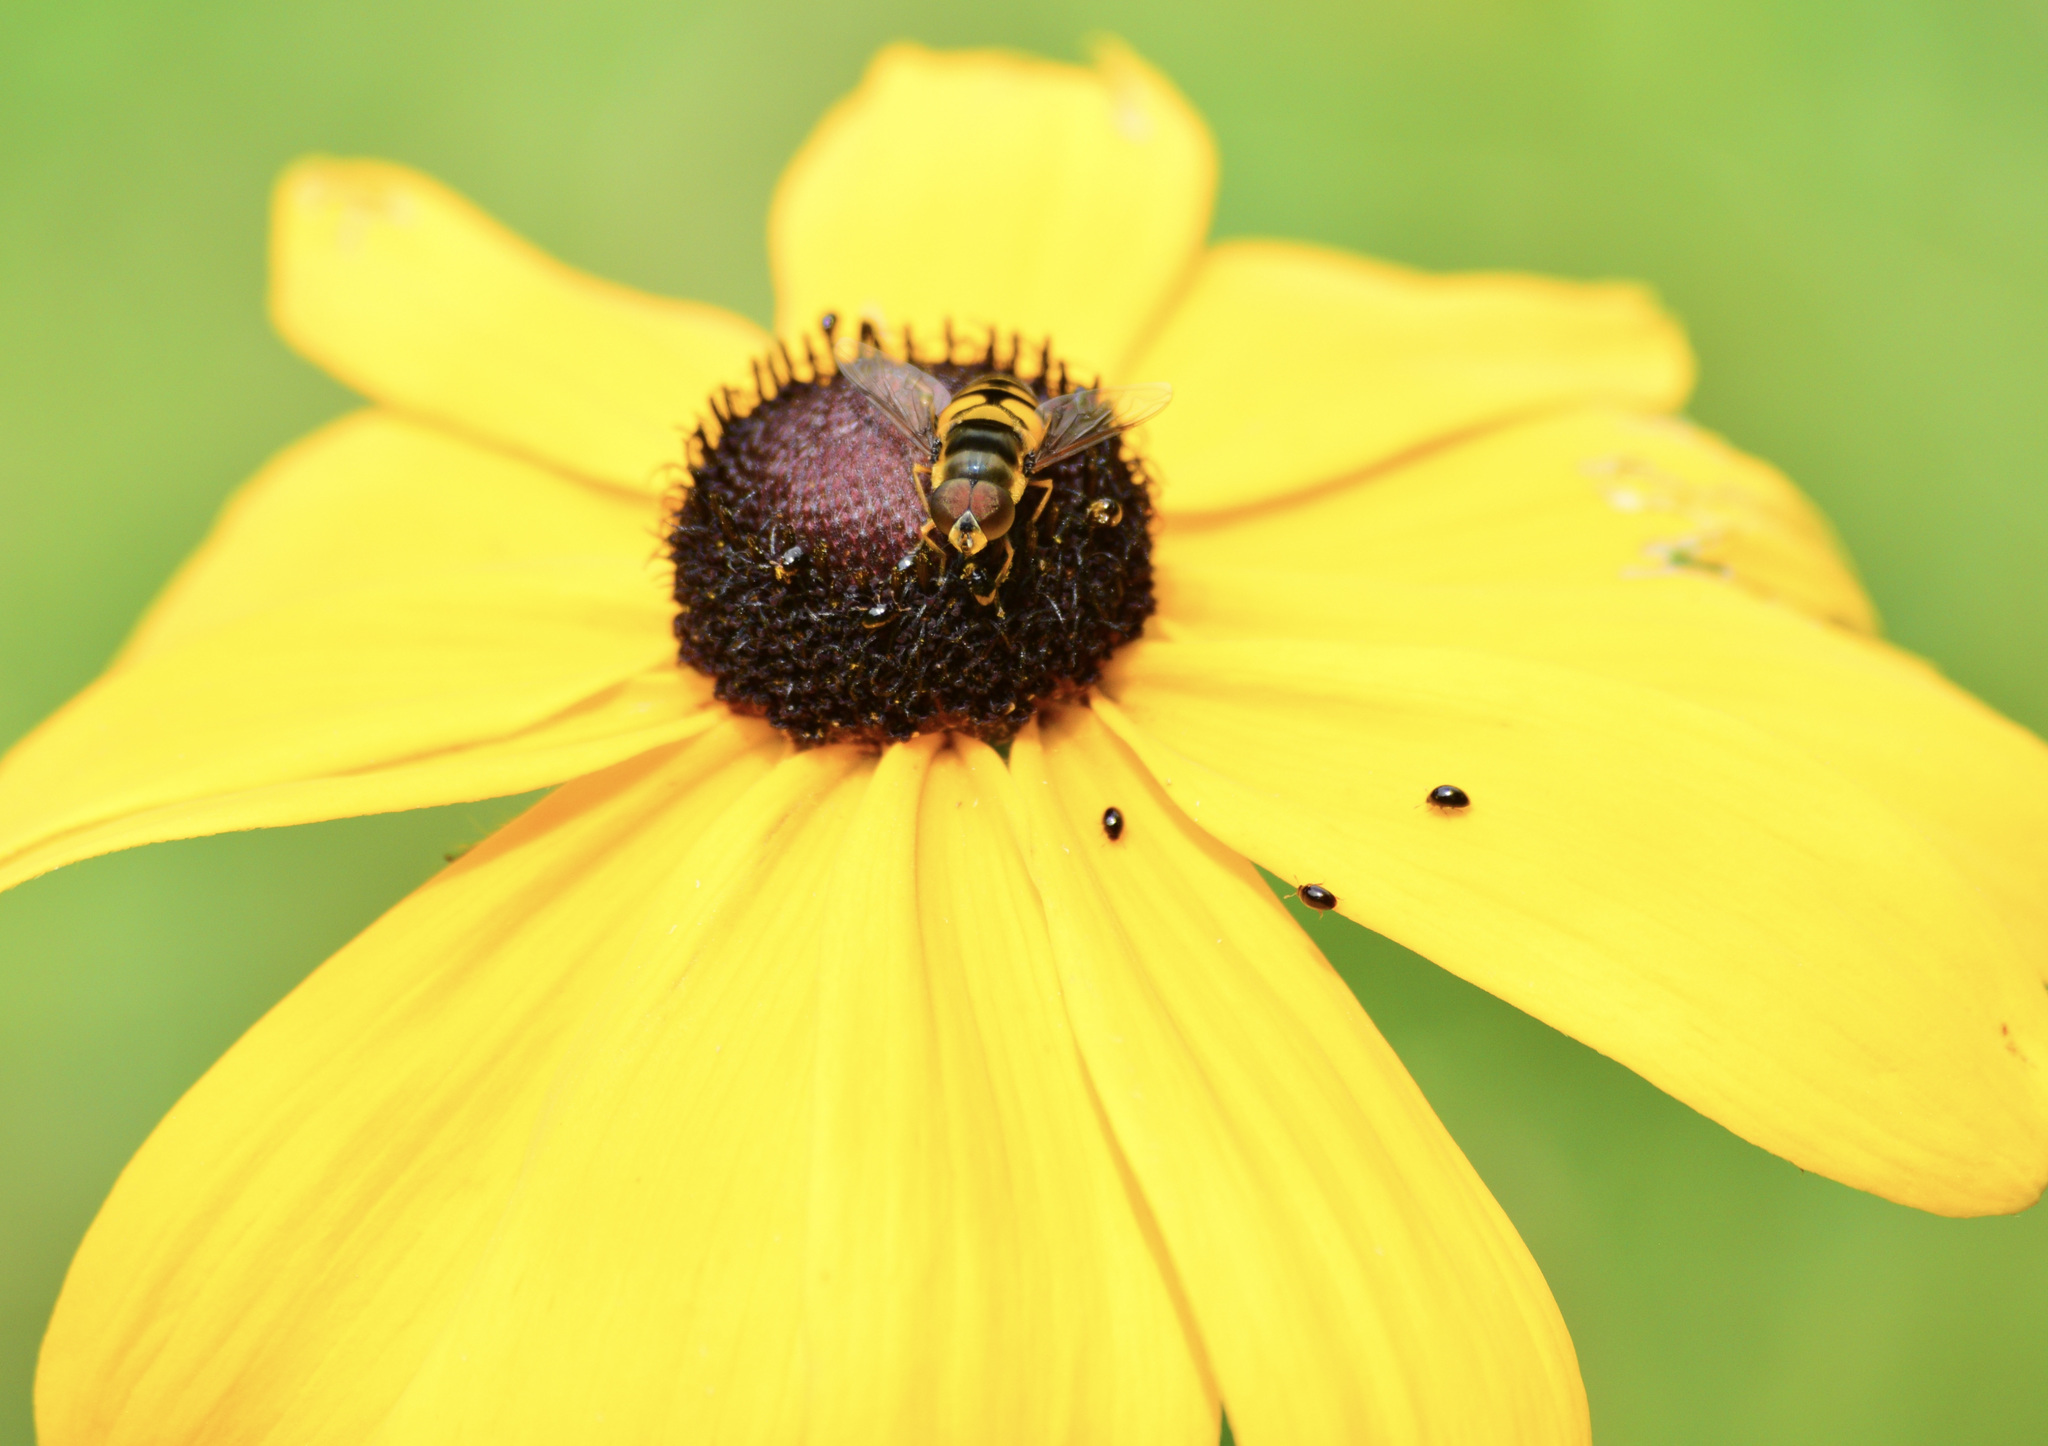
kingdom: Animalia
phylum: Arthropoda
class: Insecta
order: Diptera
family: Syrphidae
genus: Eristalis
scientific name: Eristalis transversa
